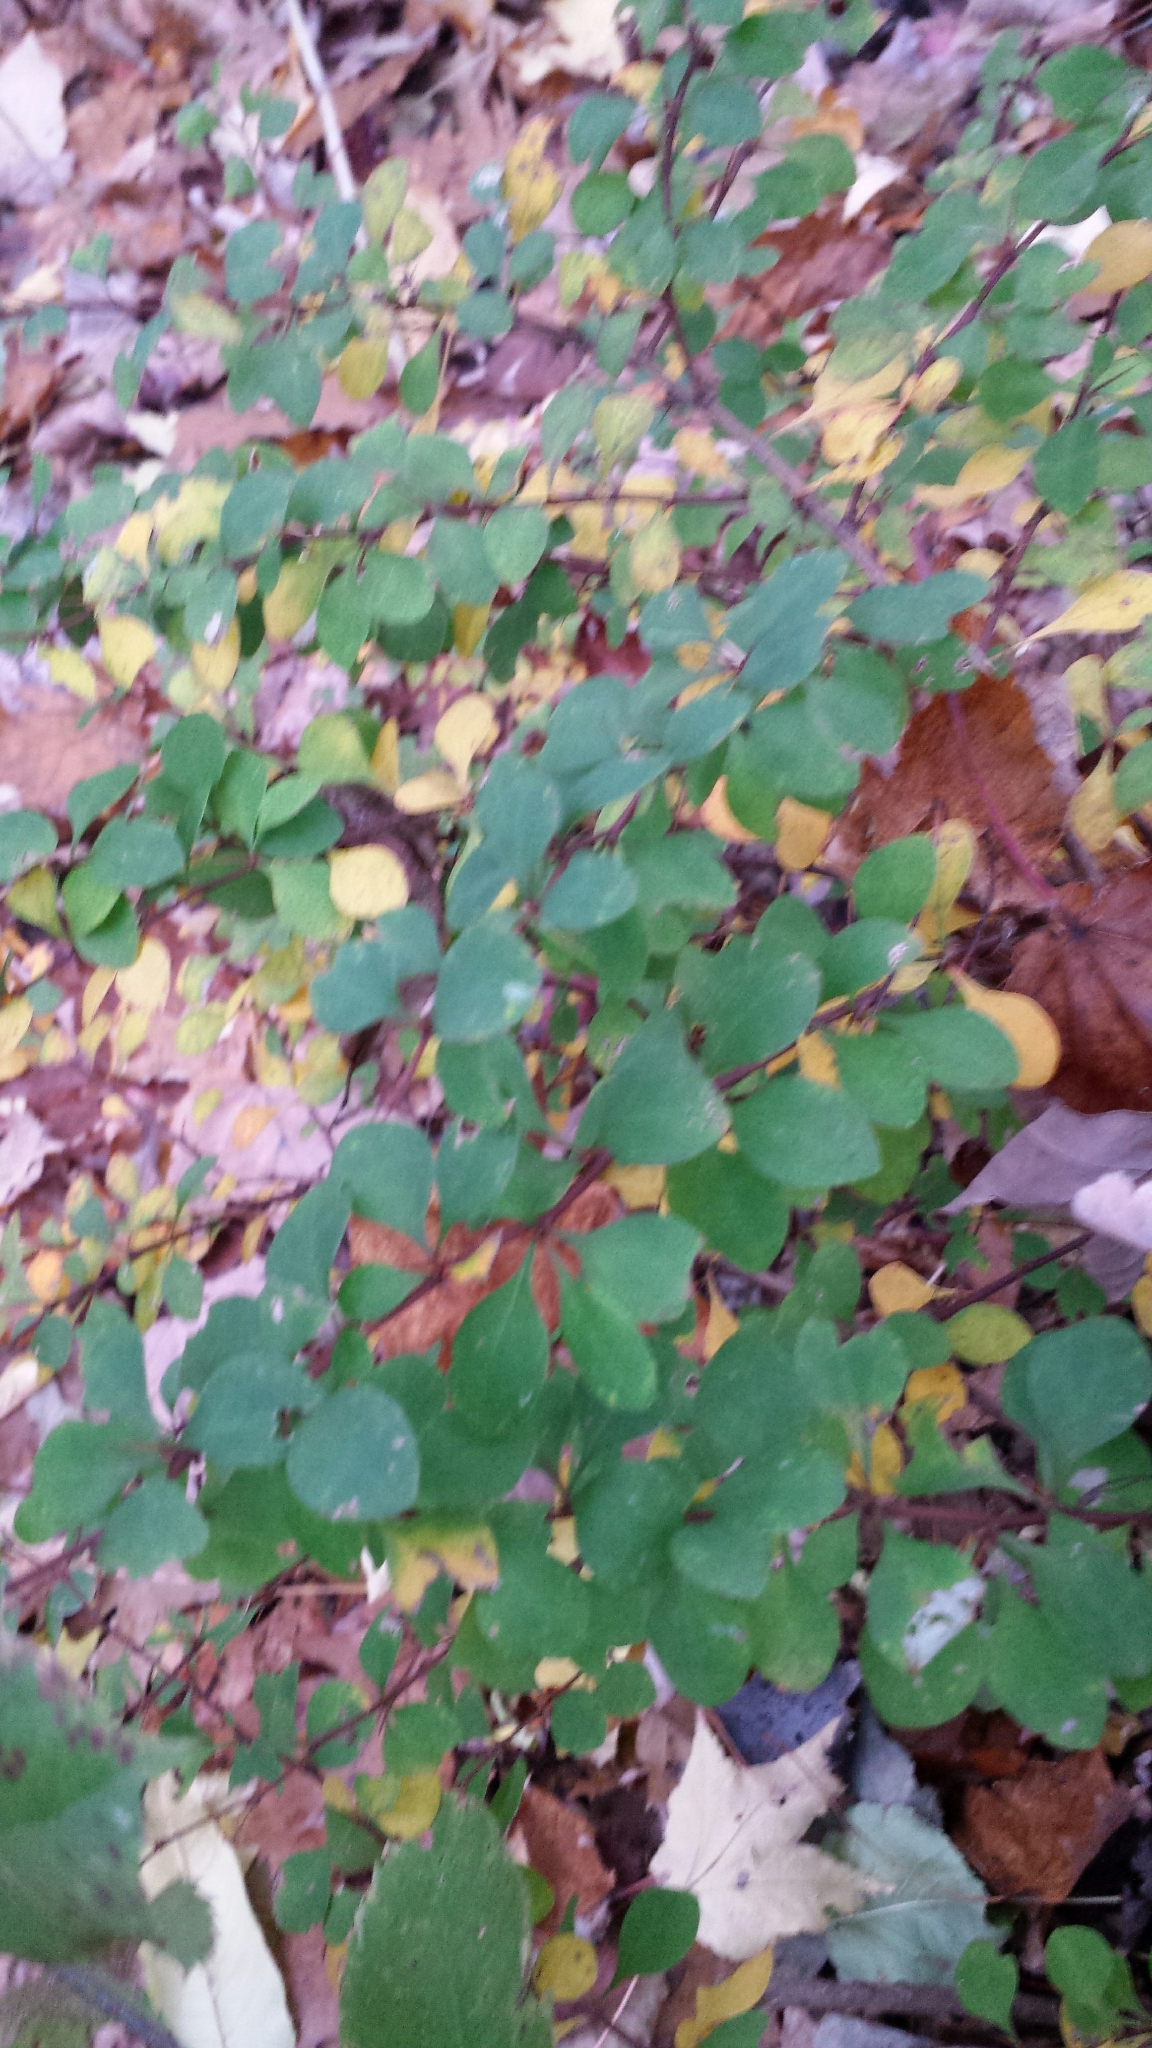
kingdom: Plantae
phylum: Tracheophyta
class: Magnoliopsida
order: Ranunculales
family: Berberidaceae
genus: Berberis
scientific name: Berberis thunbergii
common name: Japanese barberry
